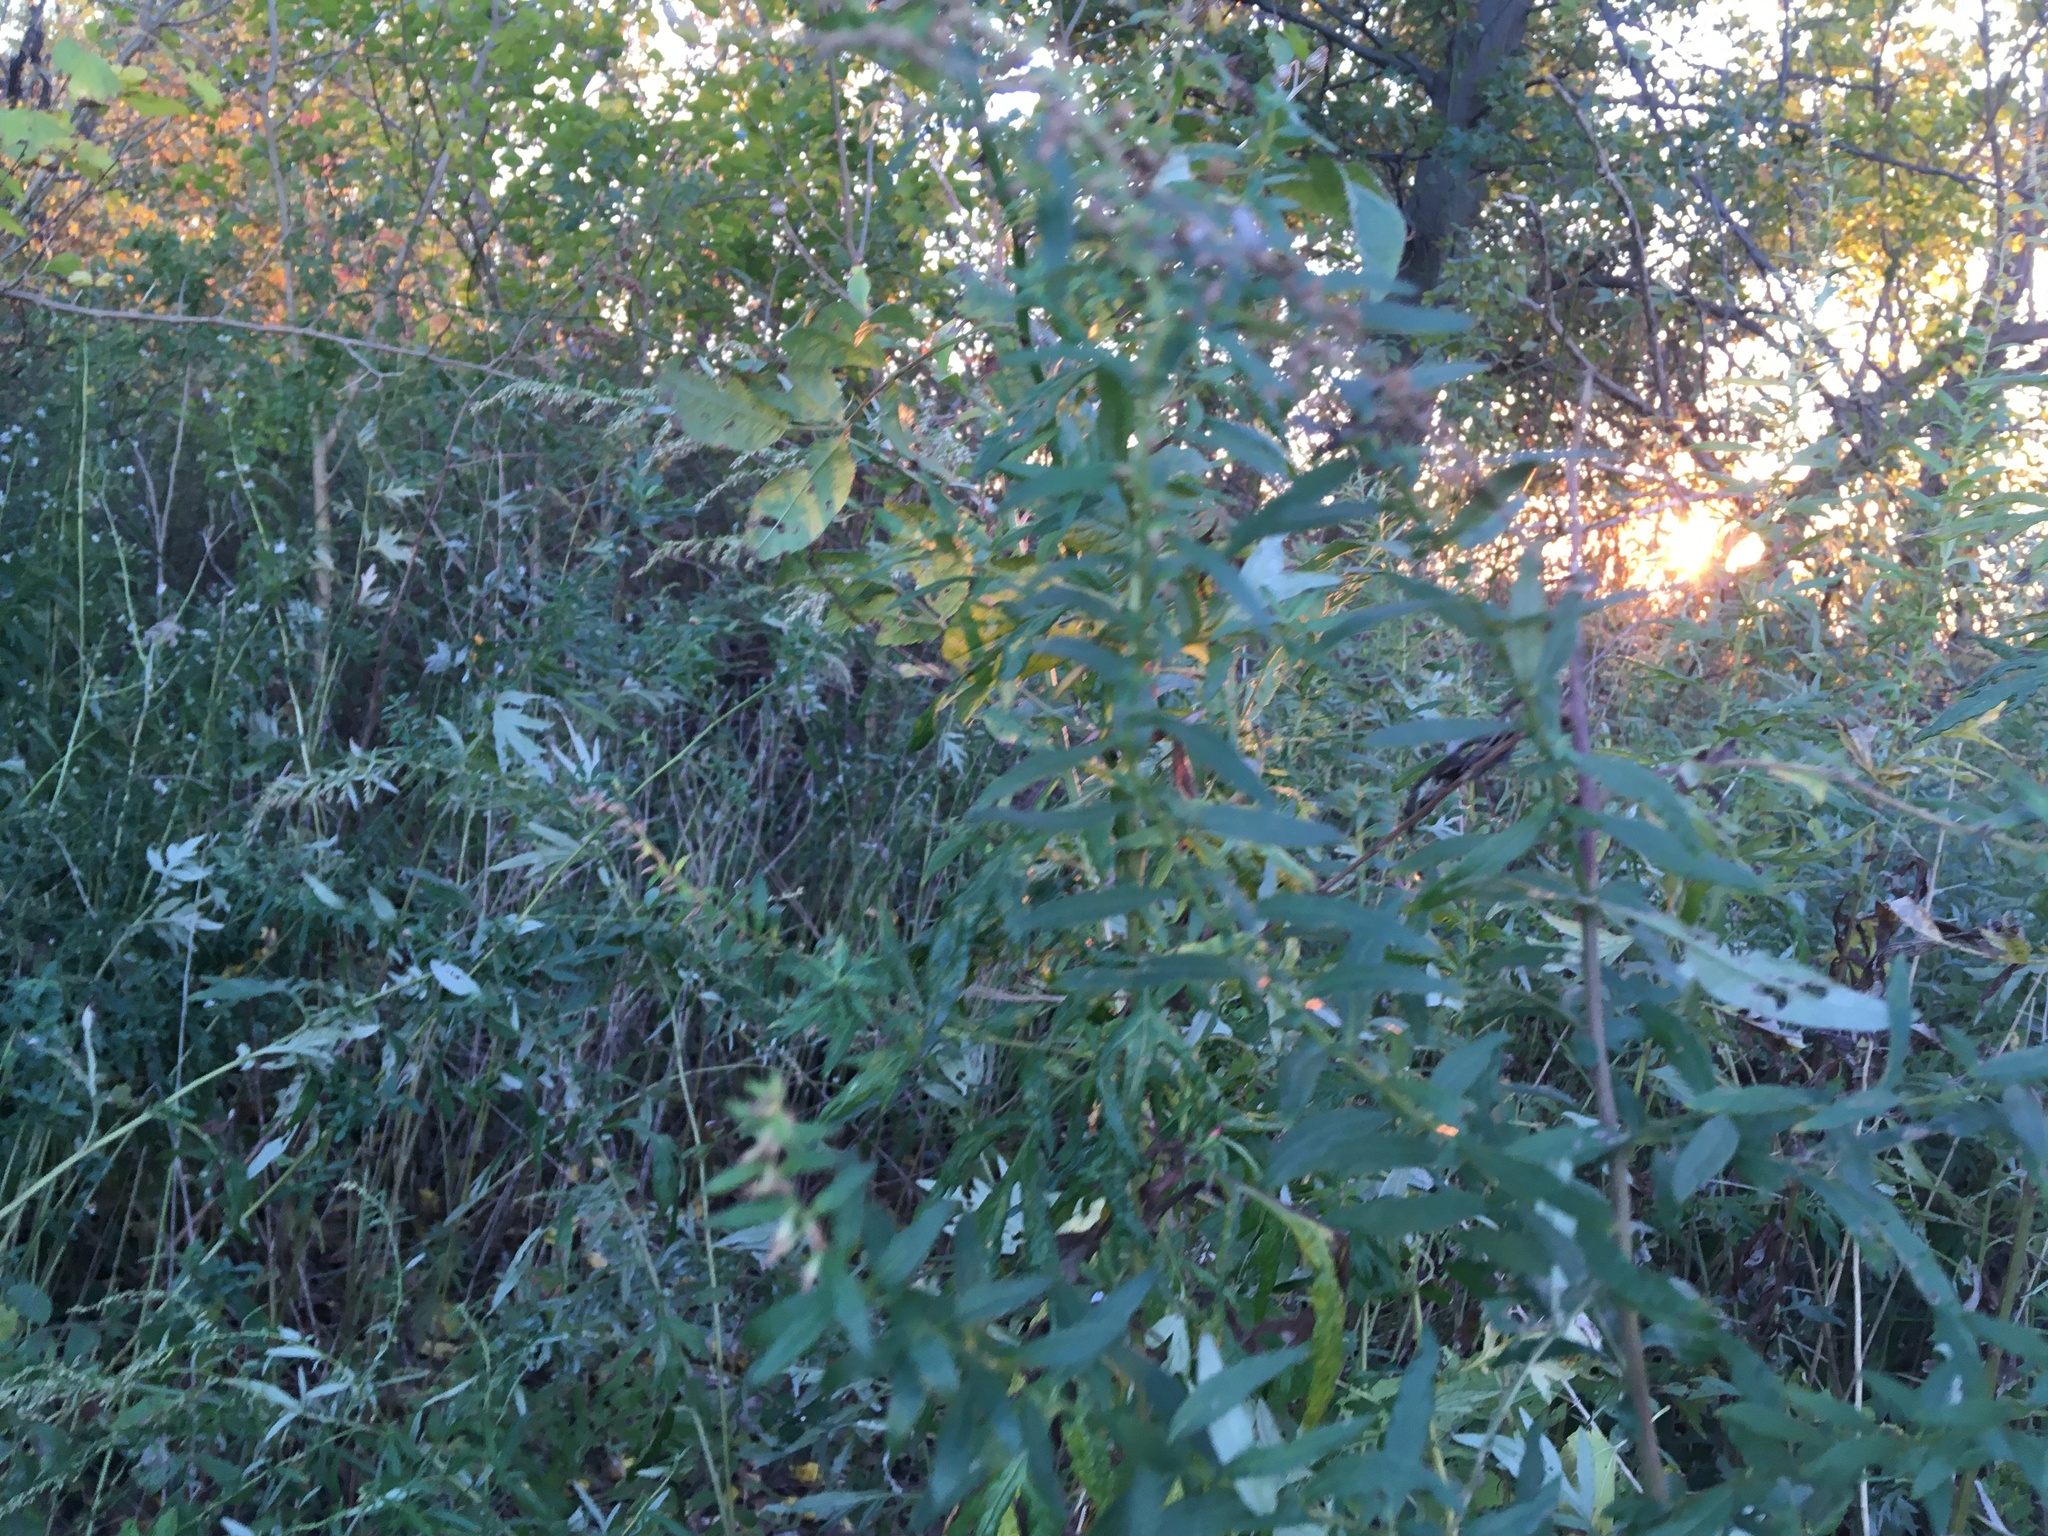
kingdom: Plantae
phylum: Tracheophyta
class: Magnoliopsida
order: Asterales
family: Asteraceae
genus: Artemisia
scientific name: Artemisia vulgaris
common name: Mugwort
